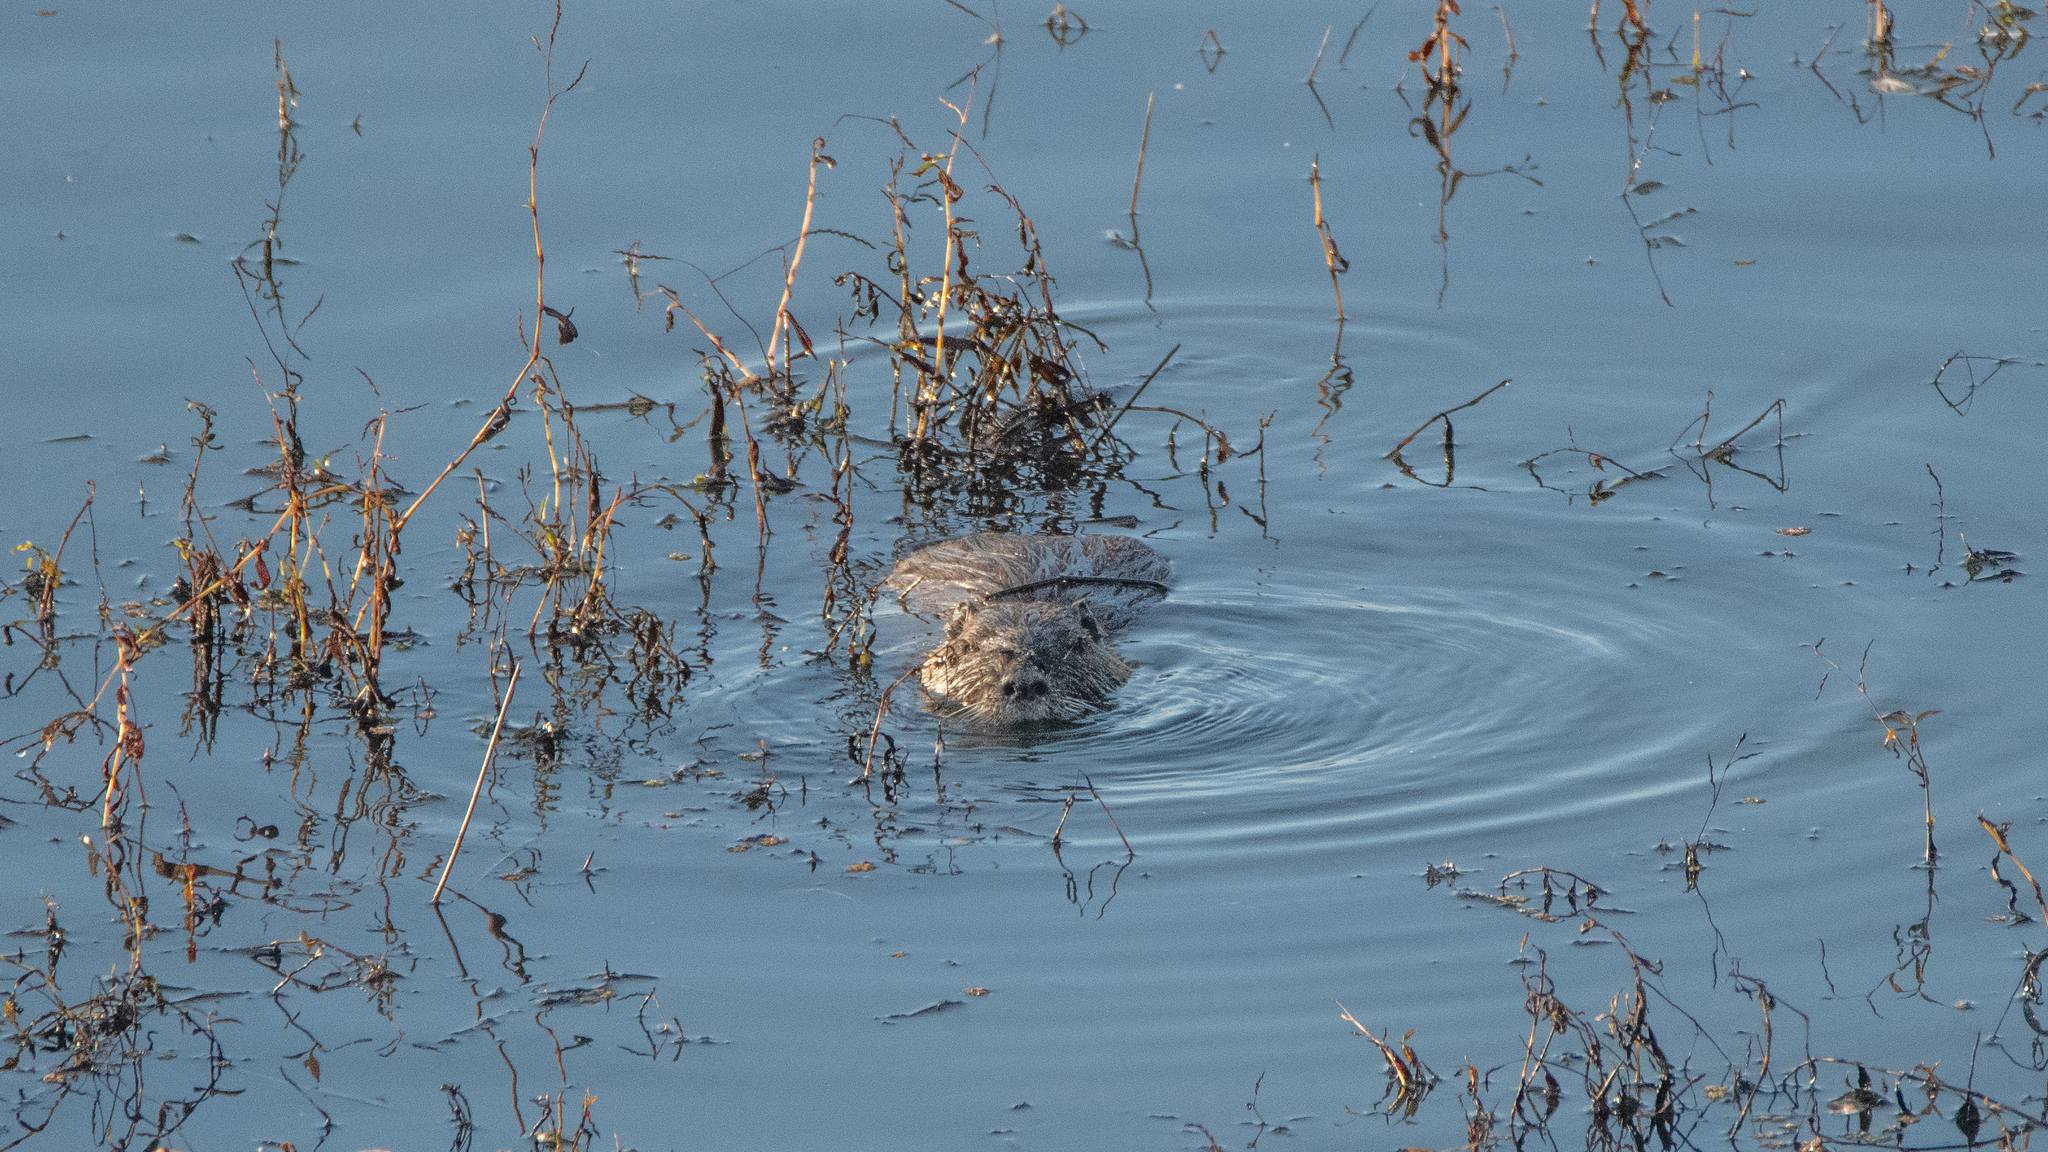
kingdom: Animalia
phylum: Chordata
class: Mammalia
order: Rodentia
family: Myocastoridae
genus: Myocastor
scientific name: Myocastor coypus
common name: Coypu
